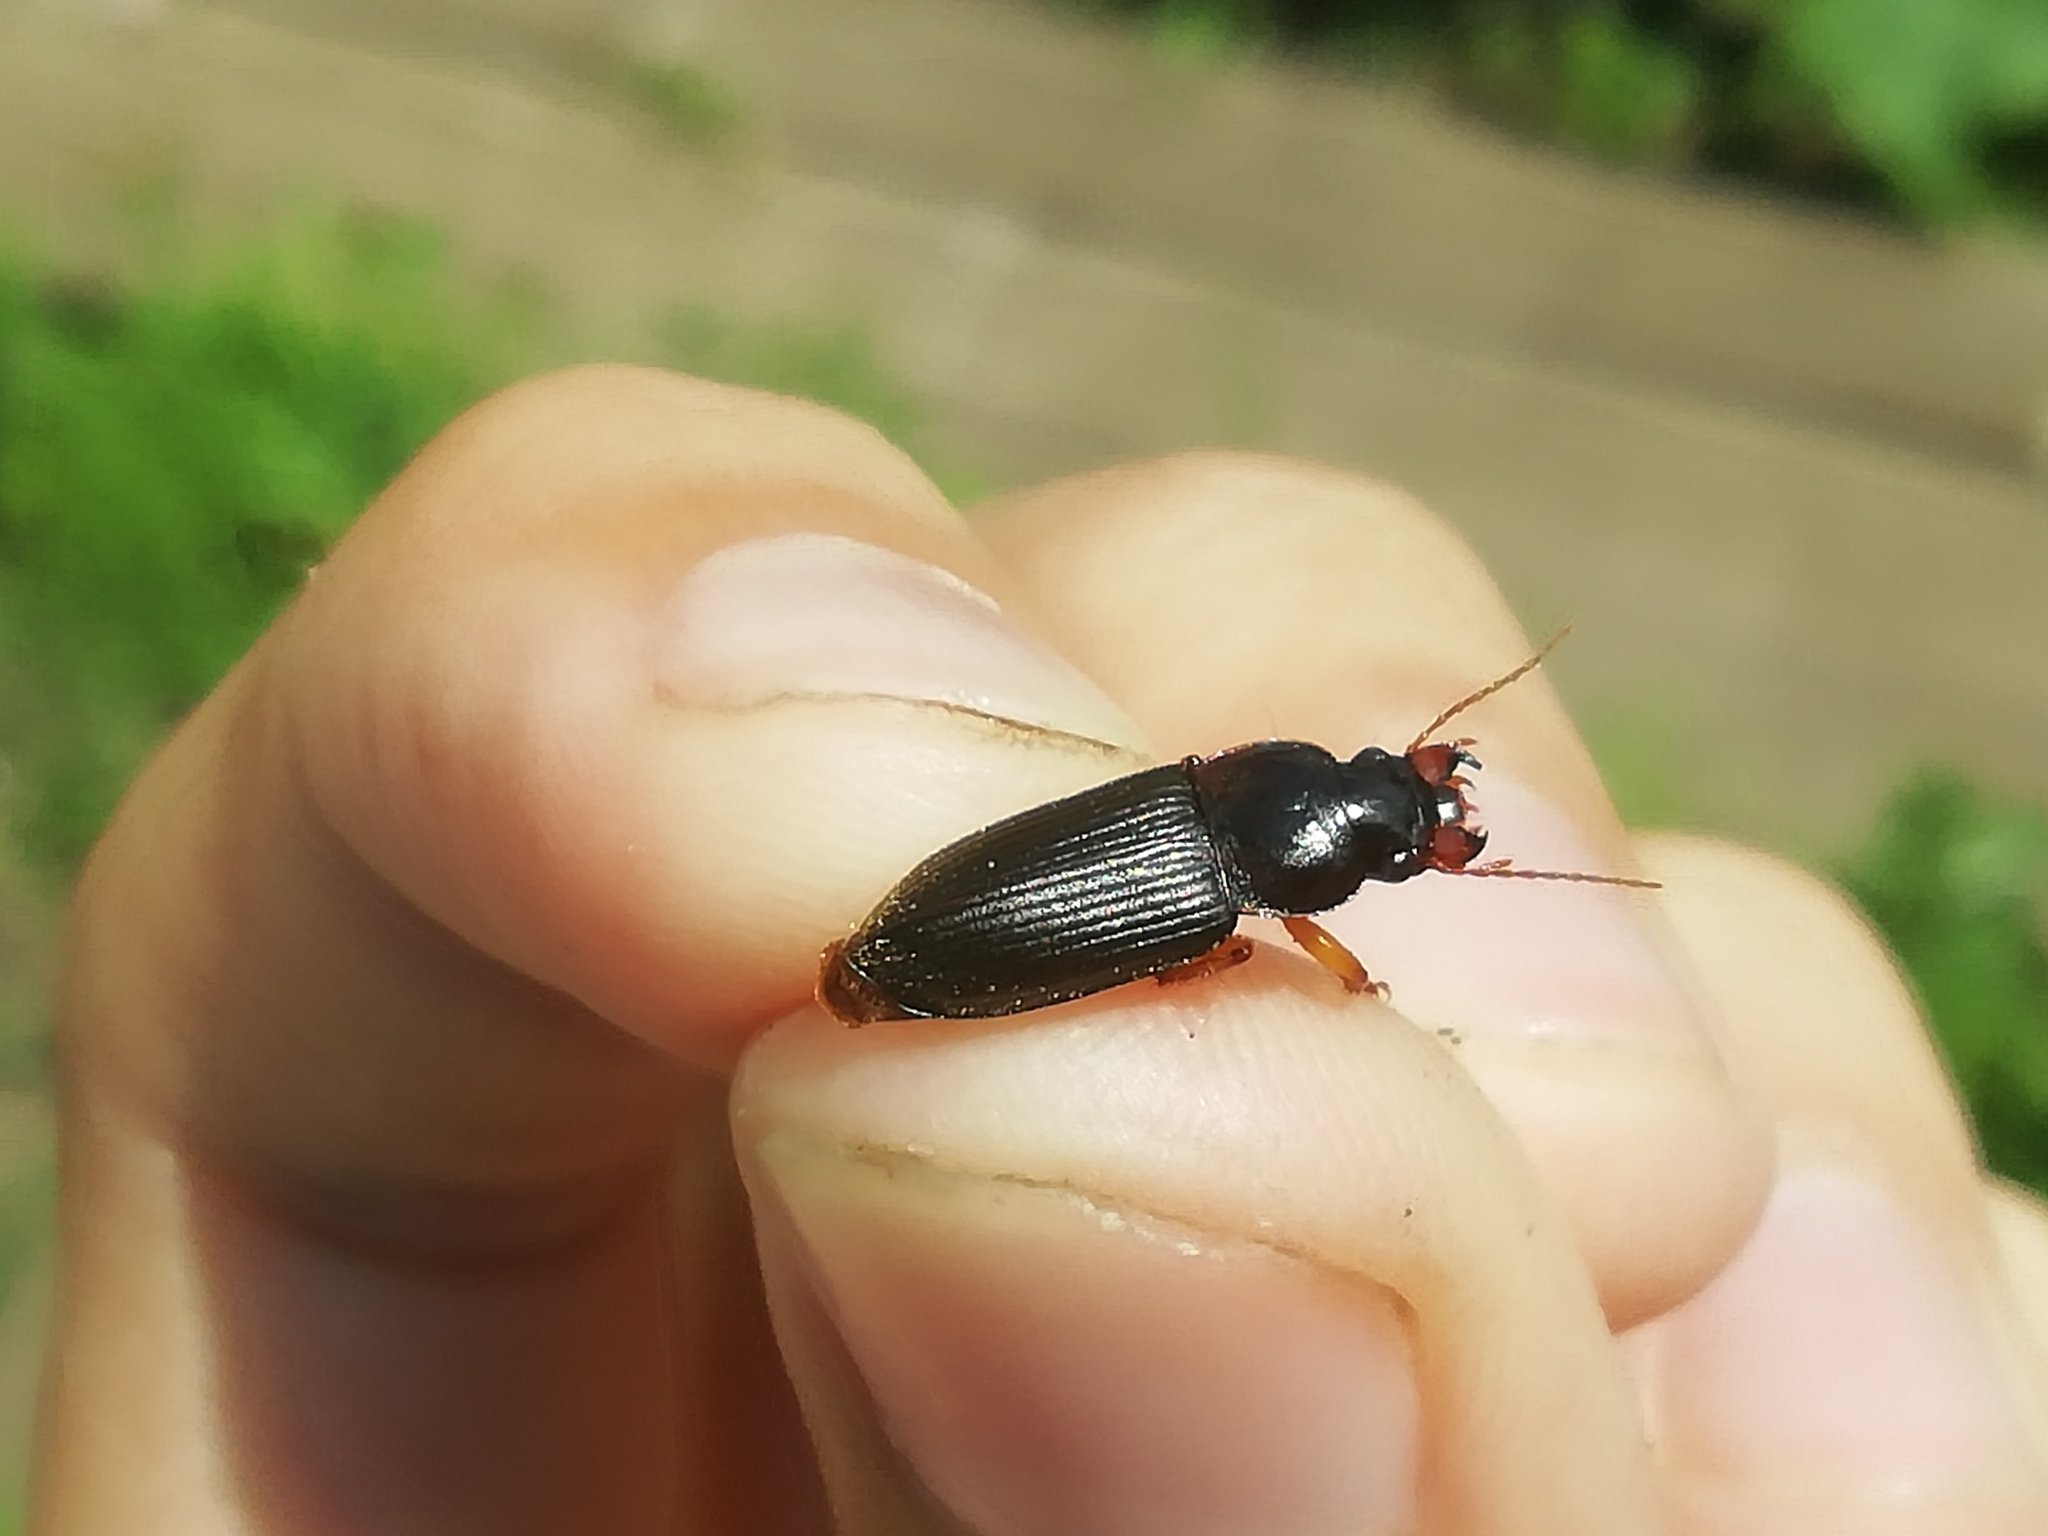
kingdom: Animalia
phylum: Arthropoda
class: Insecta
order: Coleoptera
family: Carabidae
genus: Harpalus
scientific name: Harpalus rufipes
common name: Strawberry harp ground beetle
